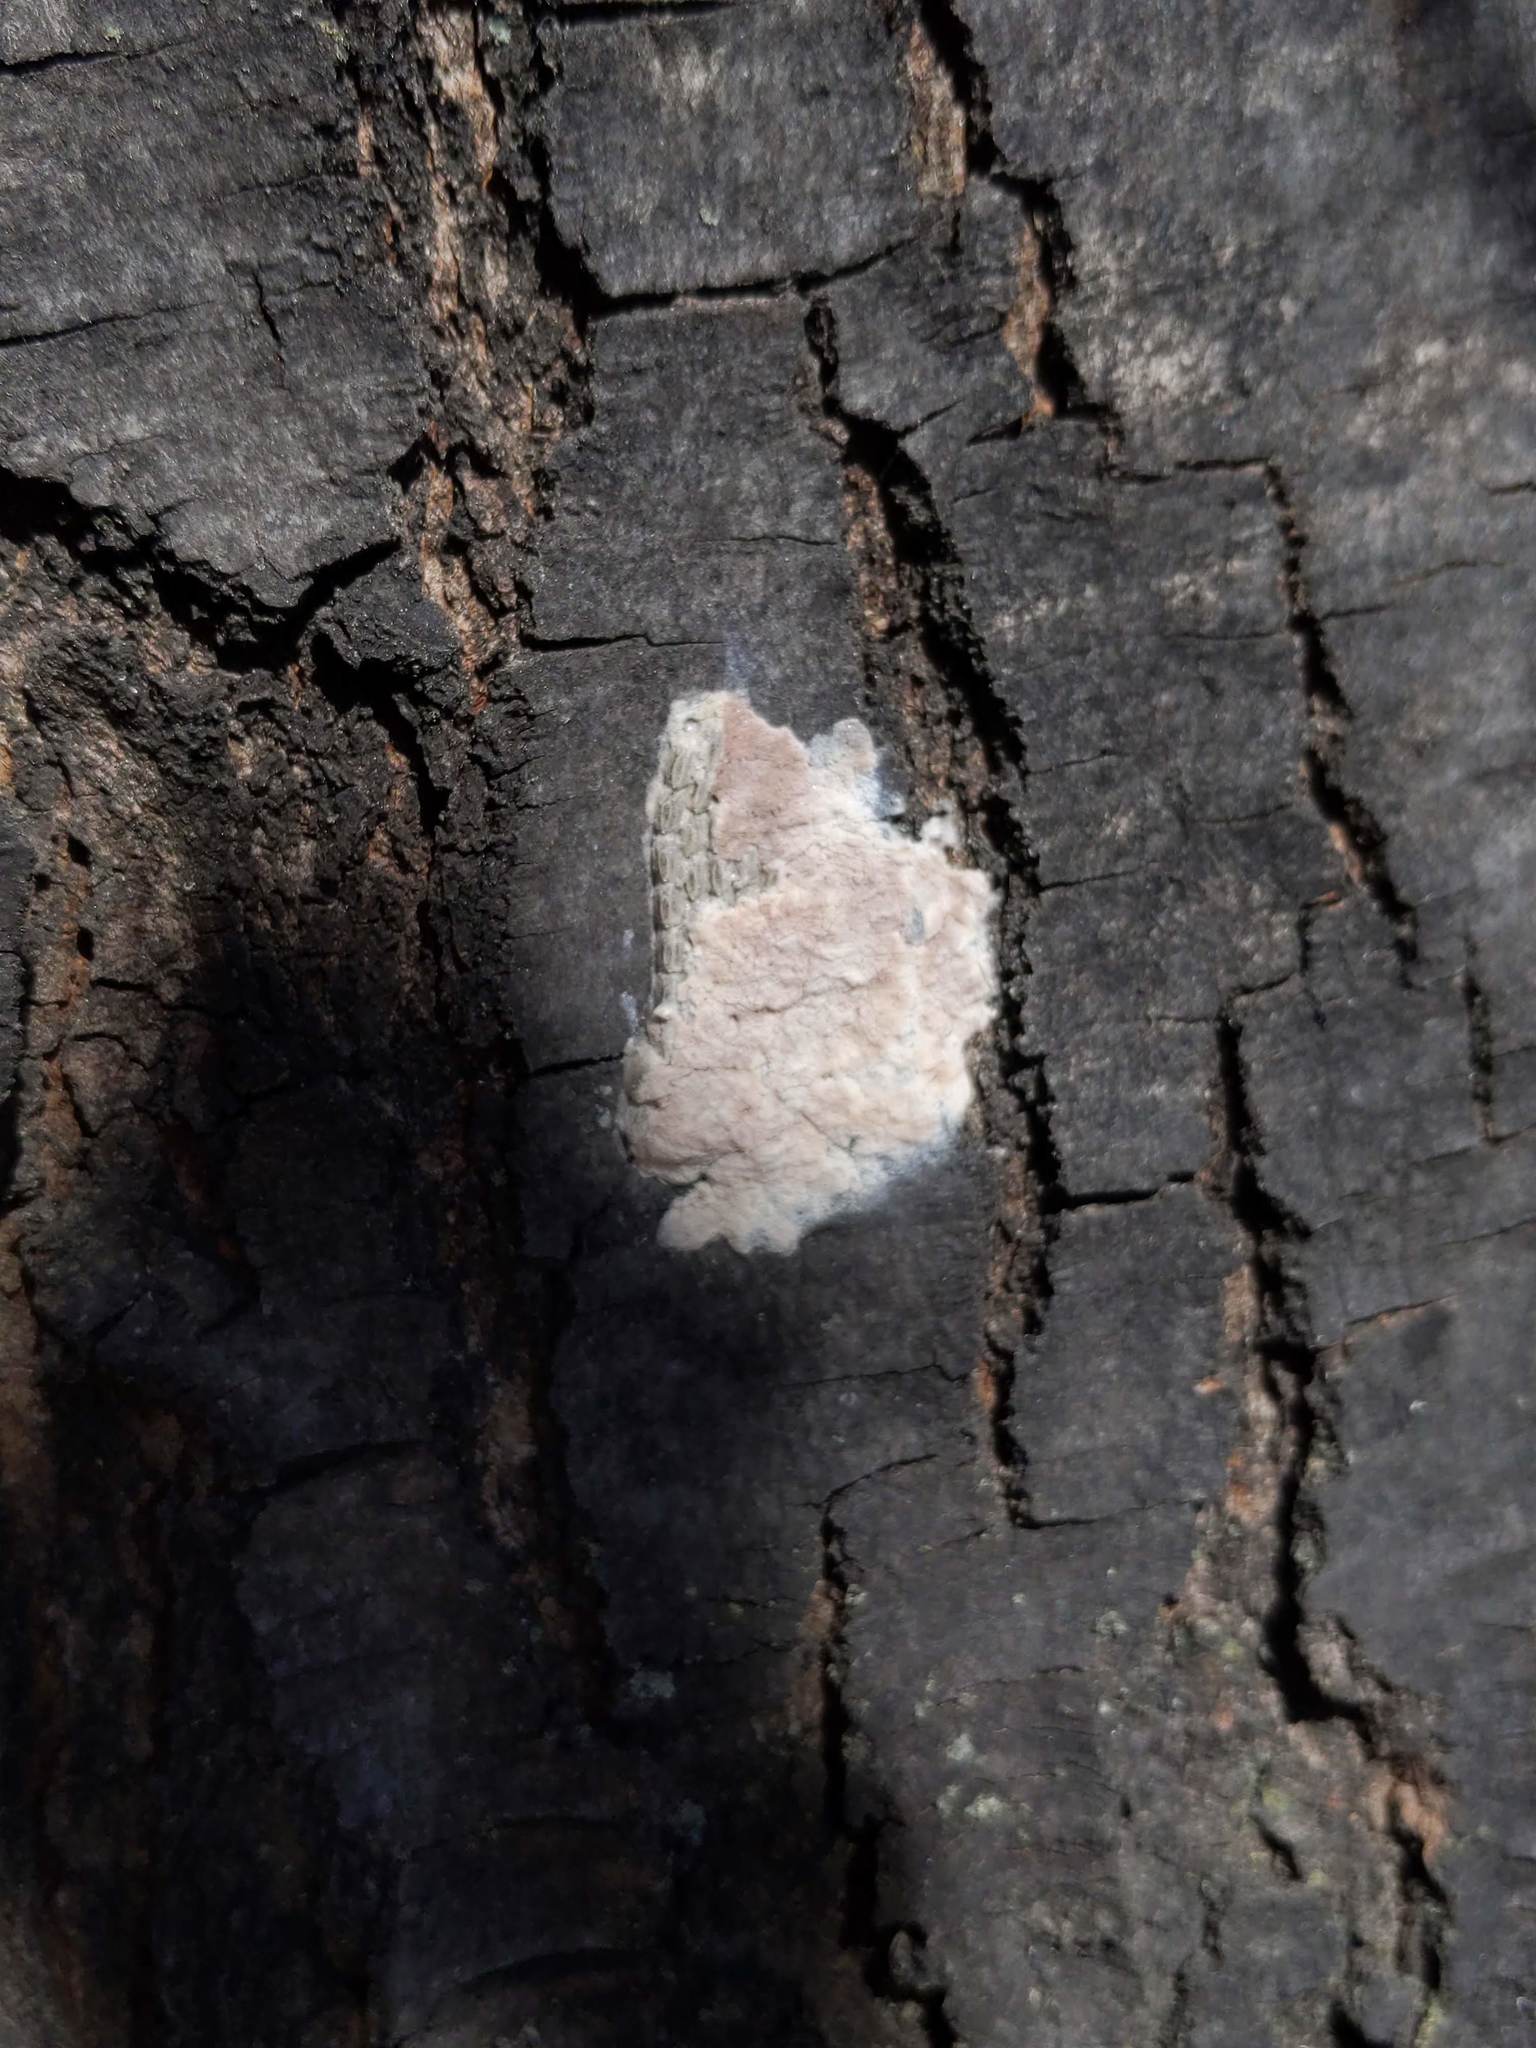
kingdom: Animalia
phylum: Arthropoda
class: Insecta
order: Hemiptera
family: Fulgoridae
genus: Lycorma
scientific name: Lycorma delicatula
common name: Spotted lanternfly
